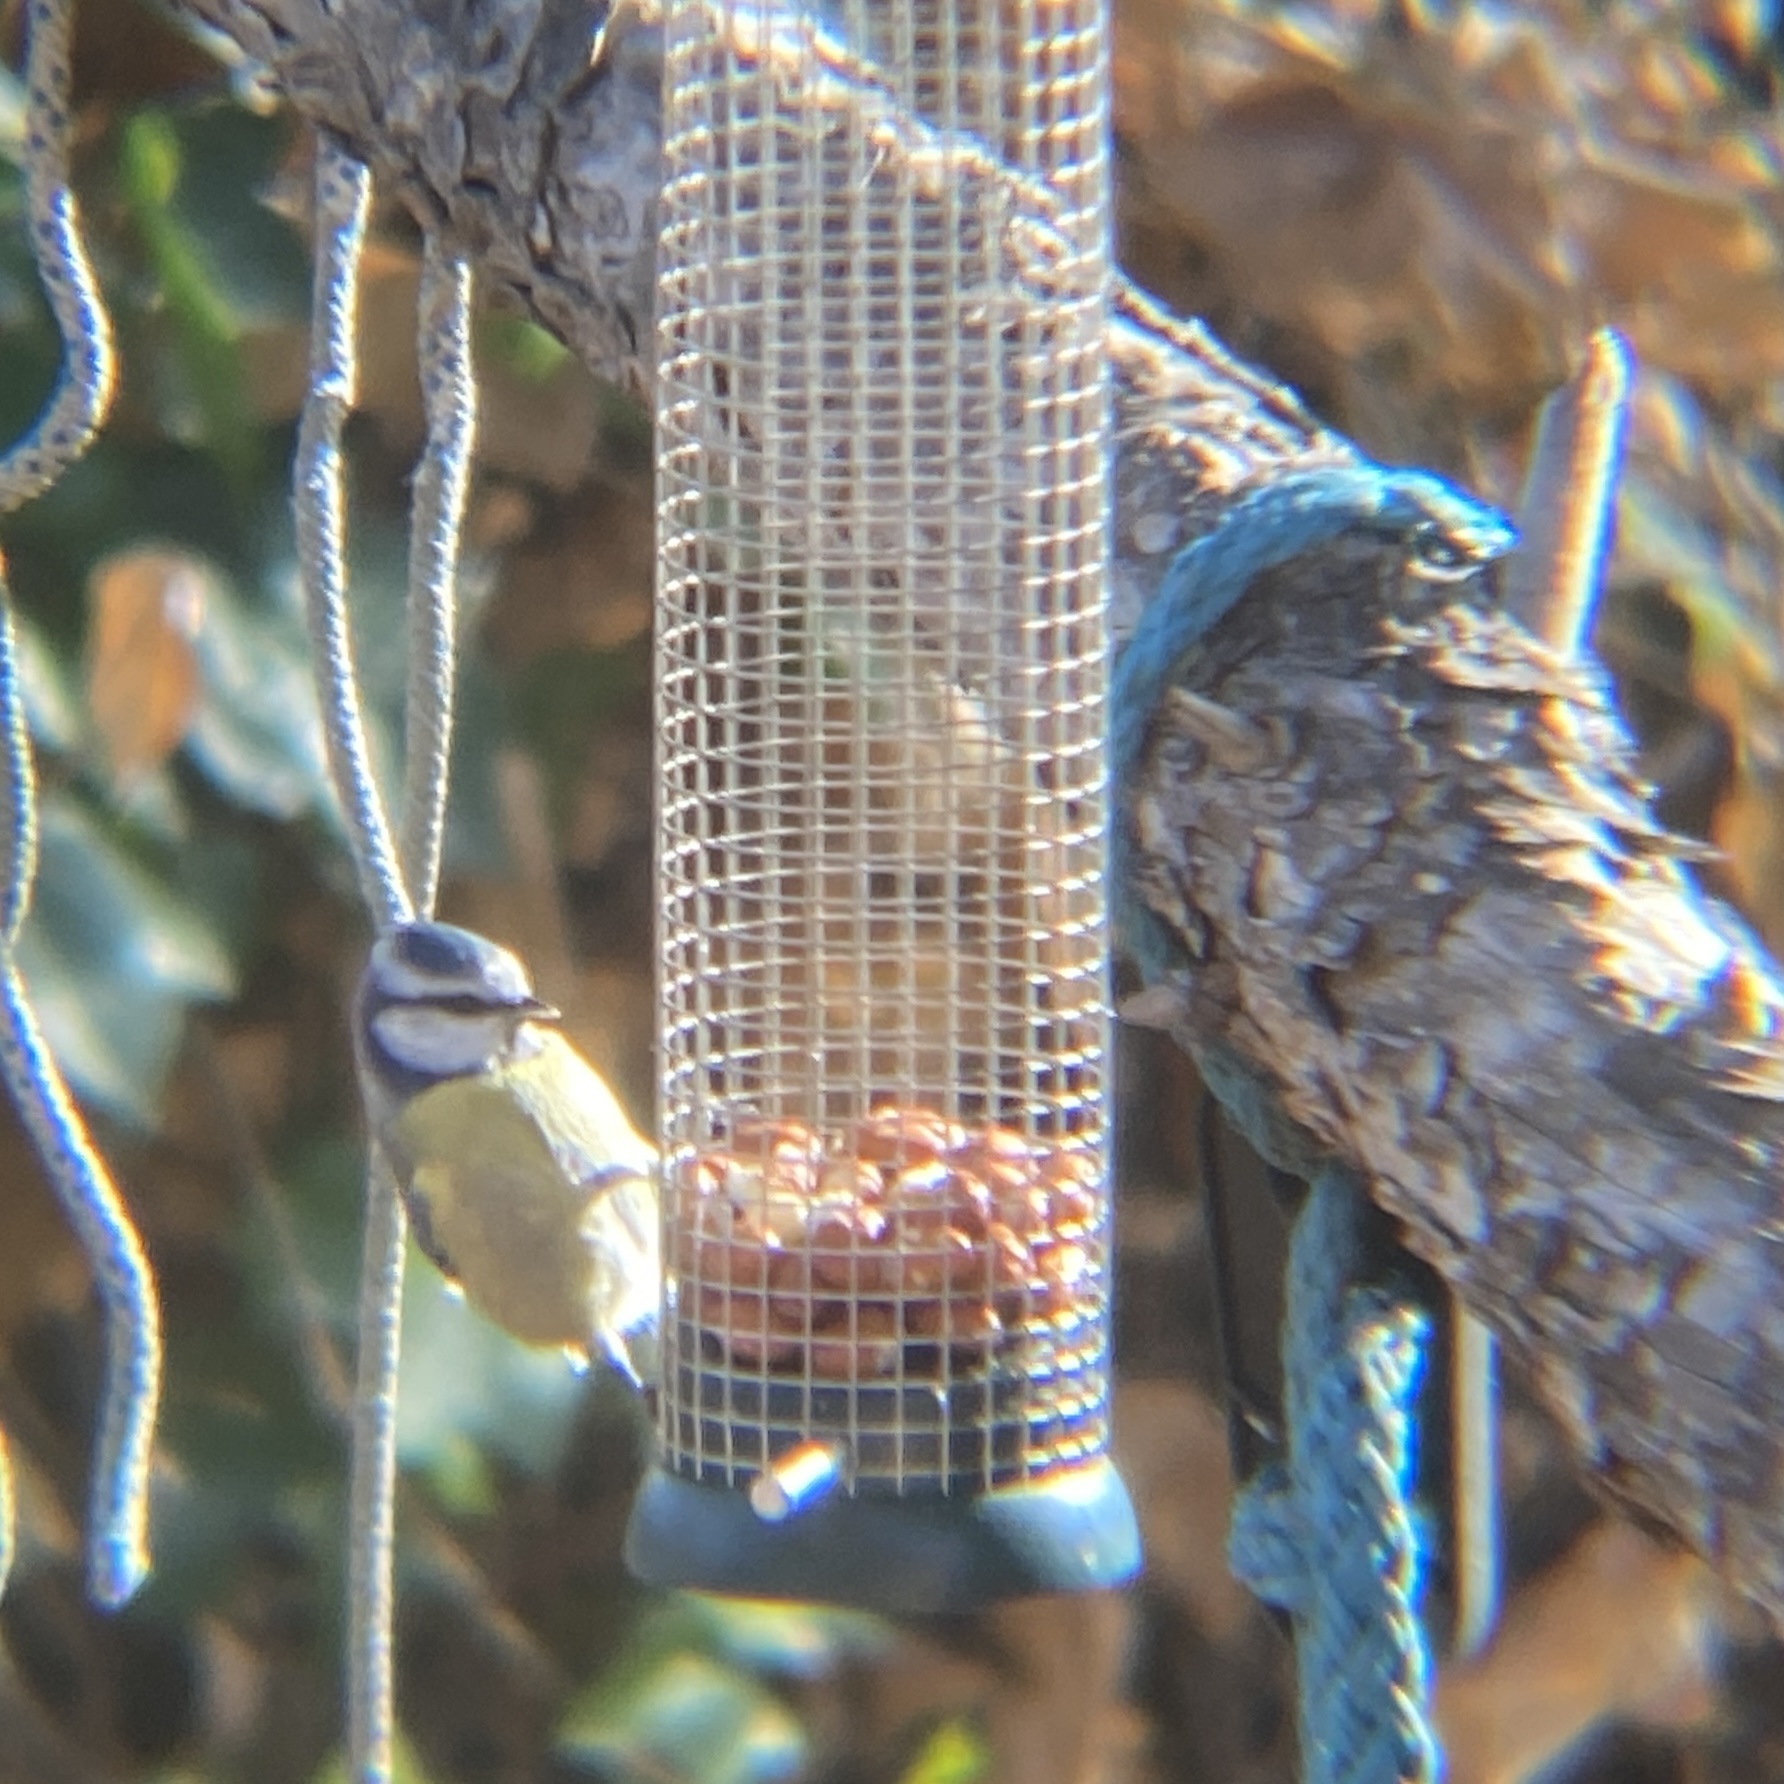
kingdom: Animalia
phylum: Chordata
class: Aves
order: Passeriformes
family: Paridae
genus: Cyanistes
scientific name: Cyanistes caeruleus
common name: Eurasian blue tit
